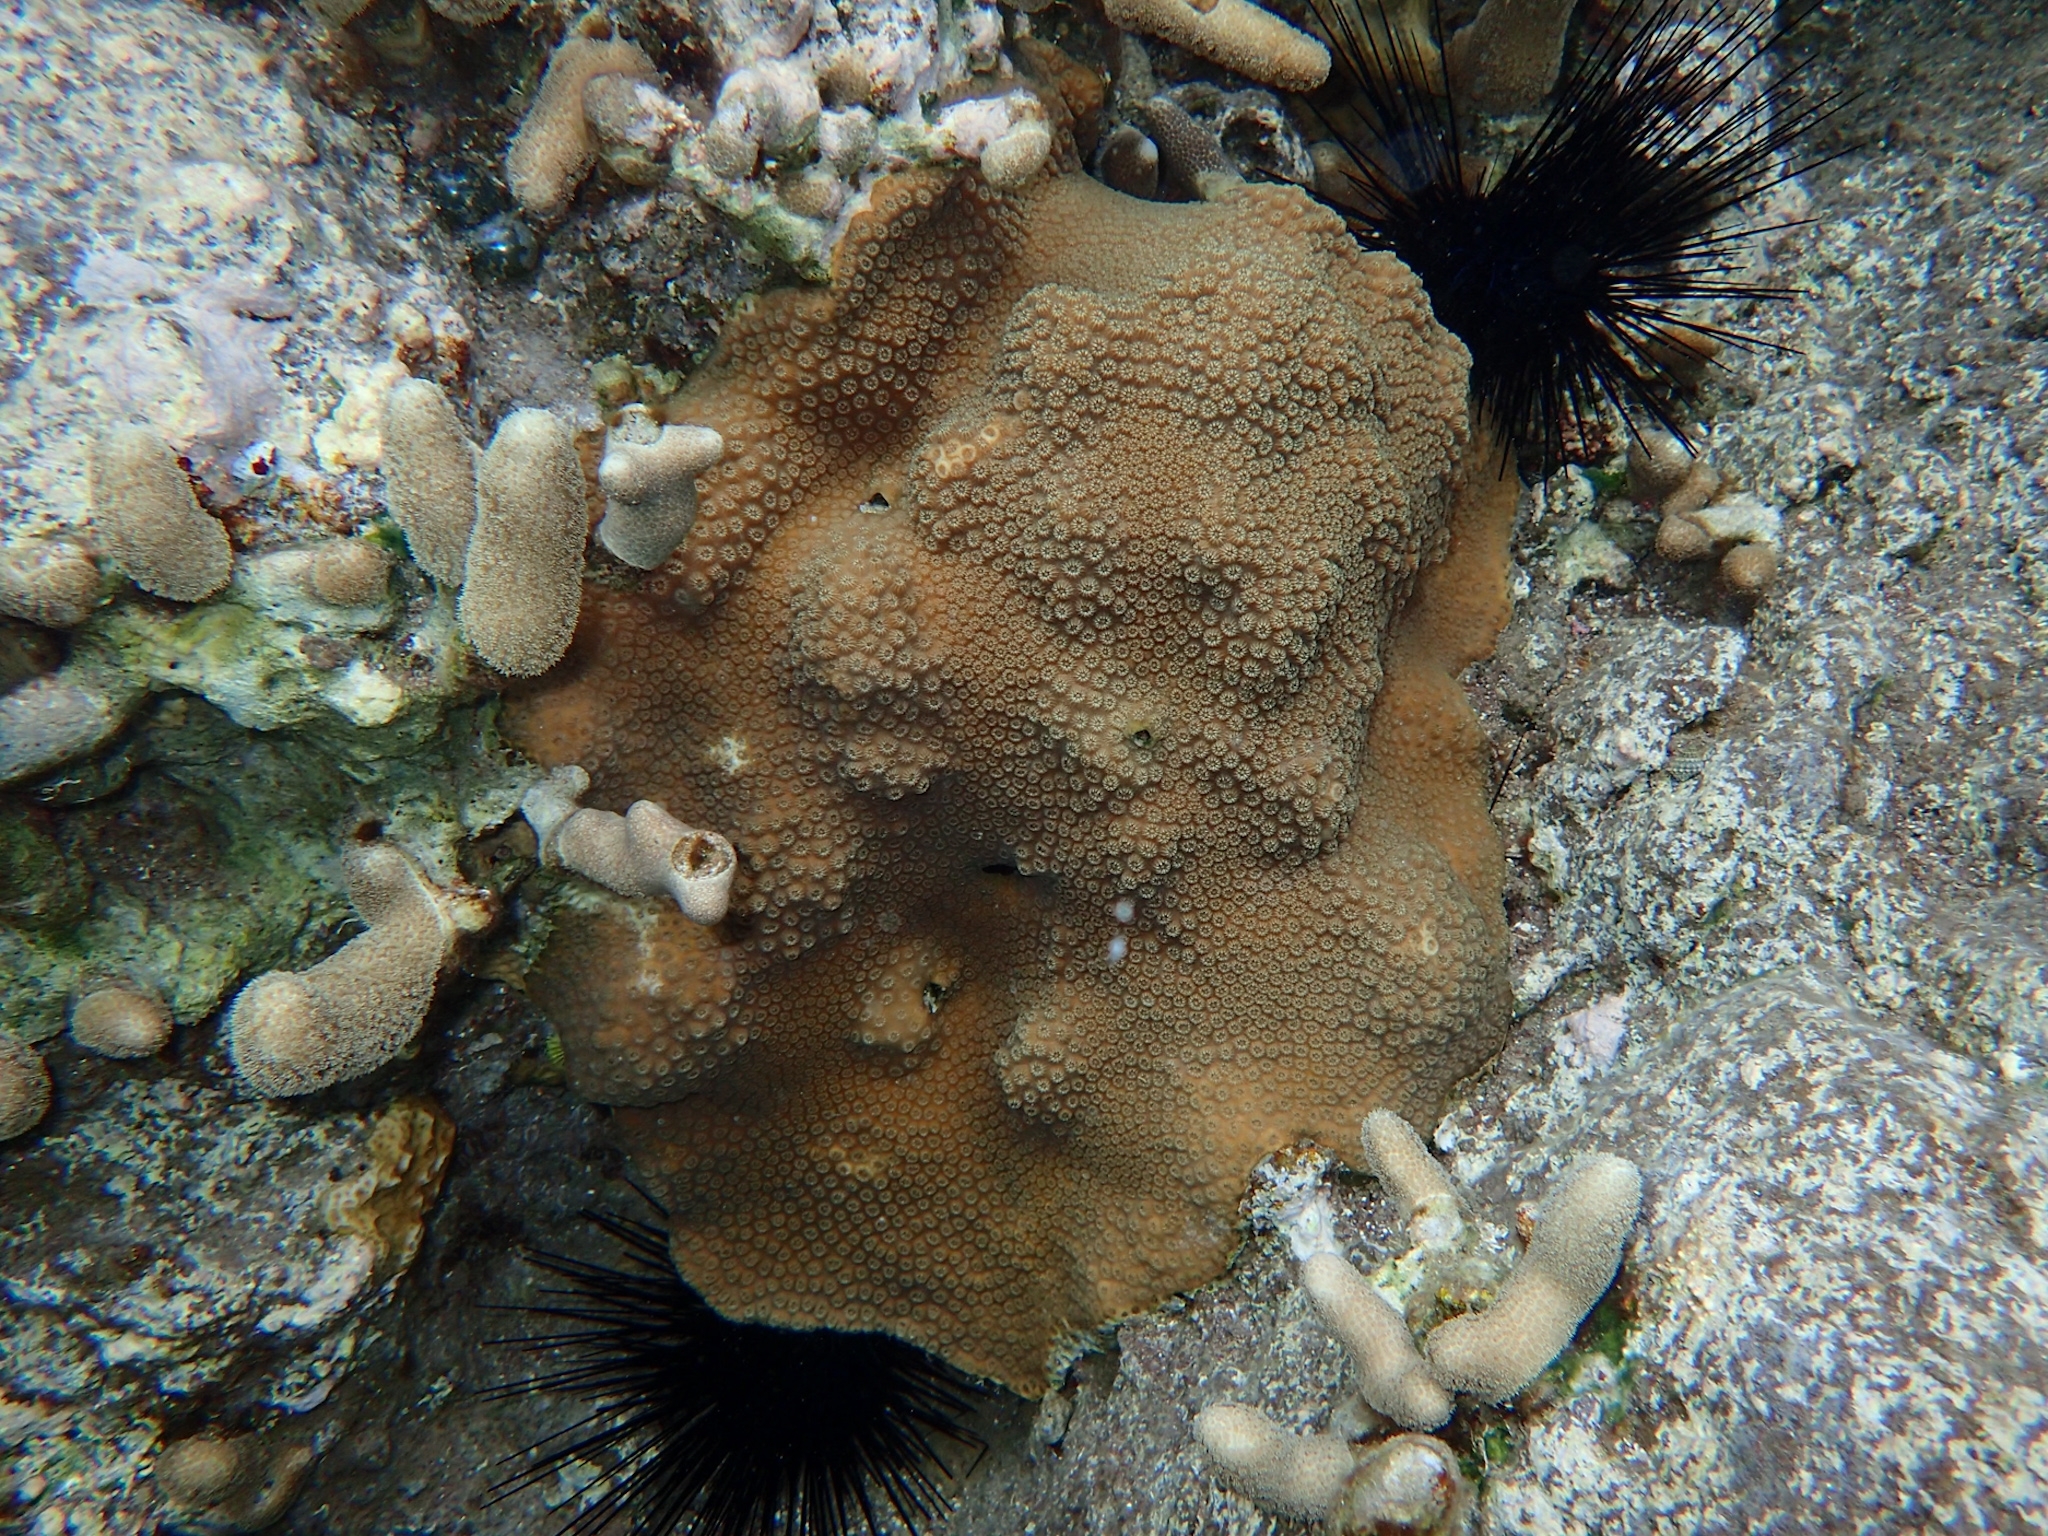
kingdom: Animalia
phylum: Cnidaria
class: Anthozoa
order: Scleractinia
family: Merulinidae
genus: Orbicella
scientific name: Orbicella faveolata
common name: Mountainous star coral
